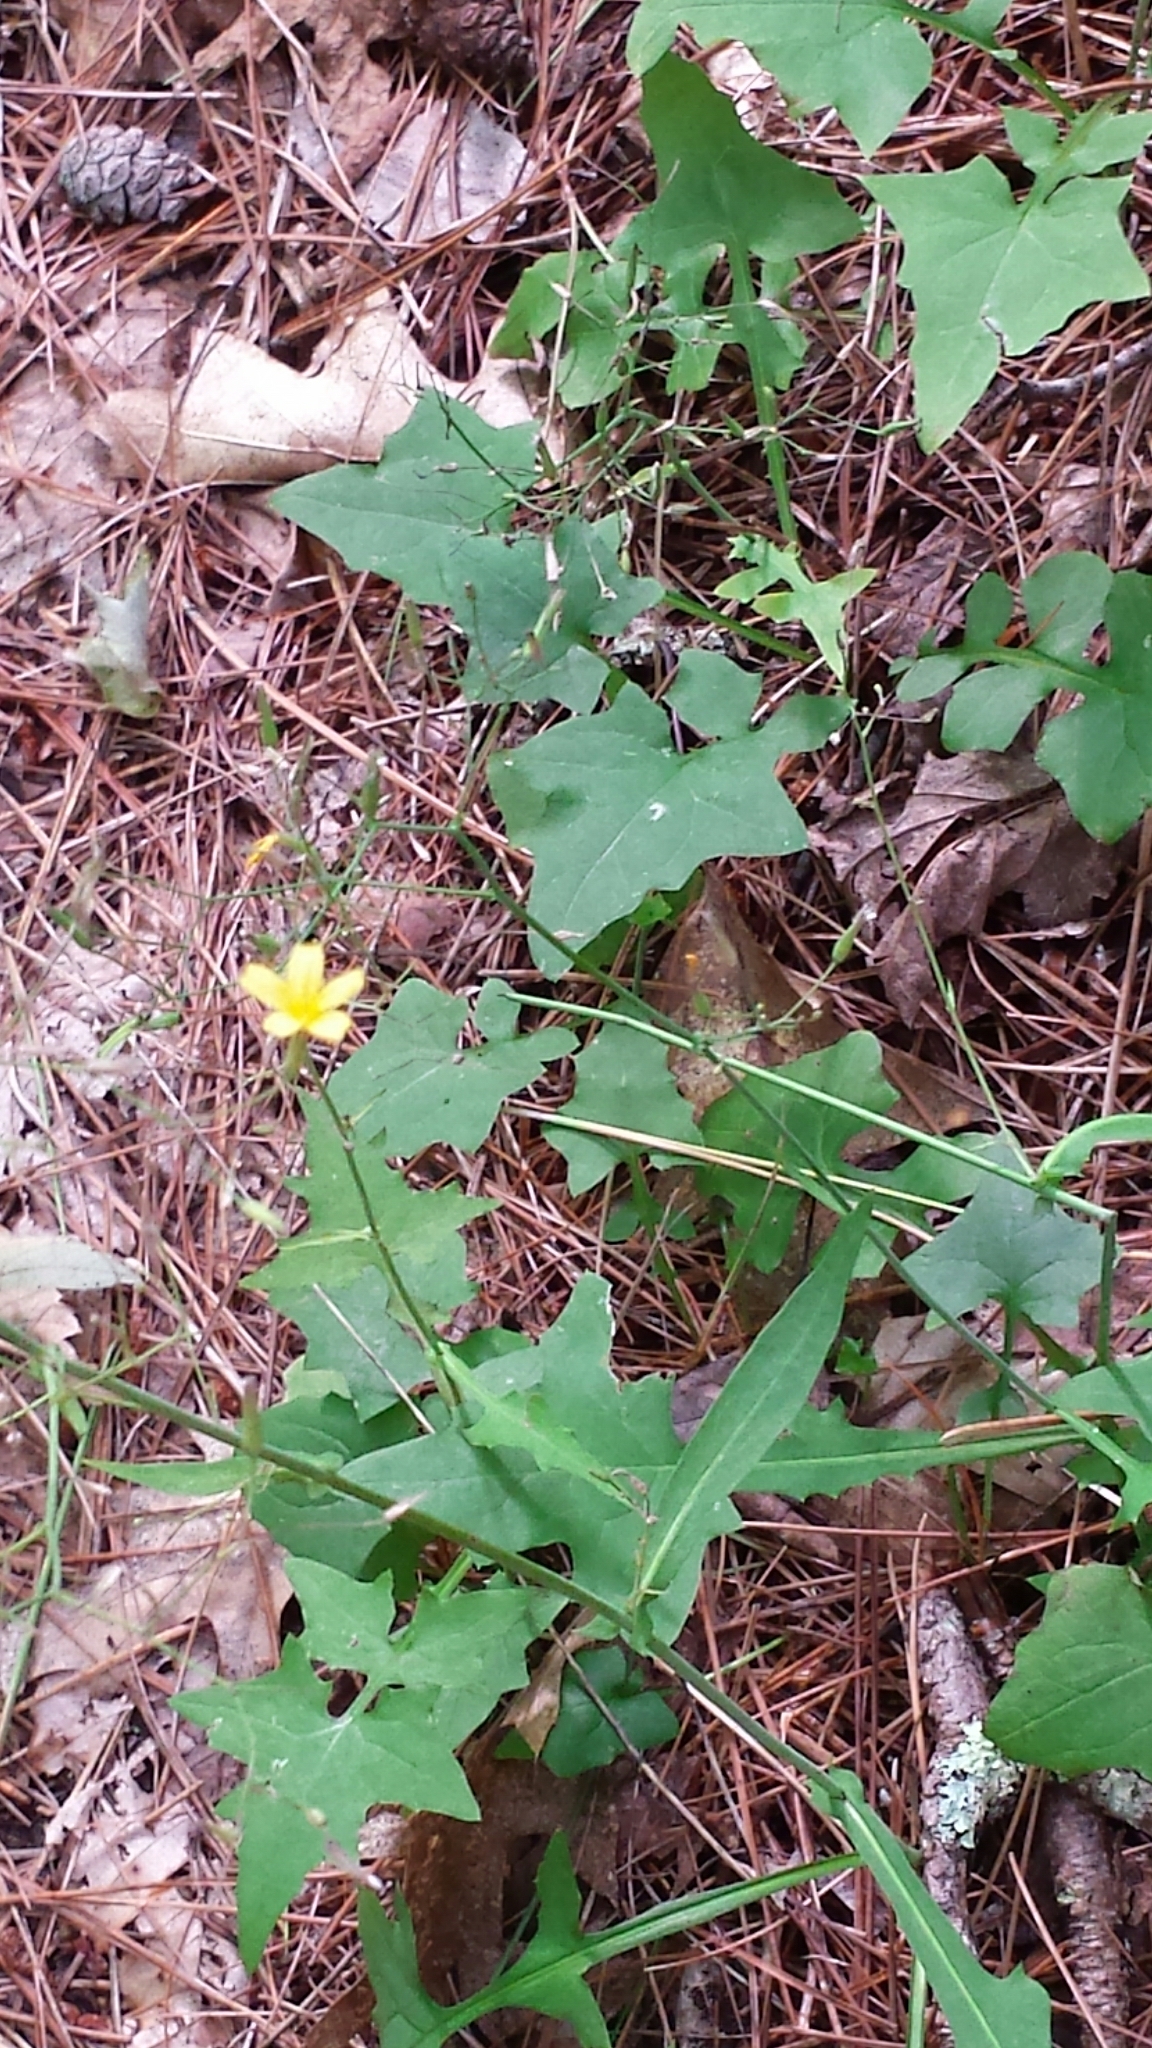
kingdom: Plantae
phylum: Tracheophyta
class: Magnoliopsida
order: Asterales
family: Asteraceae
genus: Mycelis
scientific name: Mycelis muralis
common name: Wall lettuce
